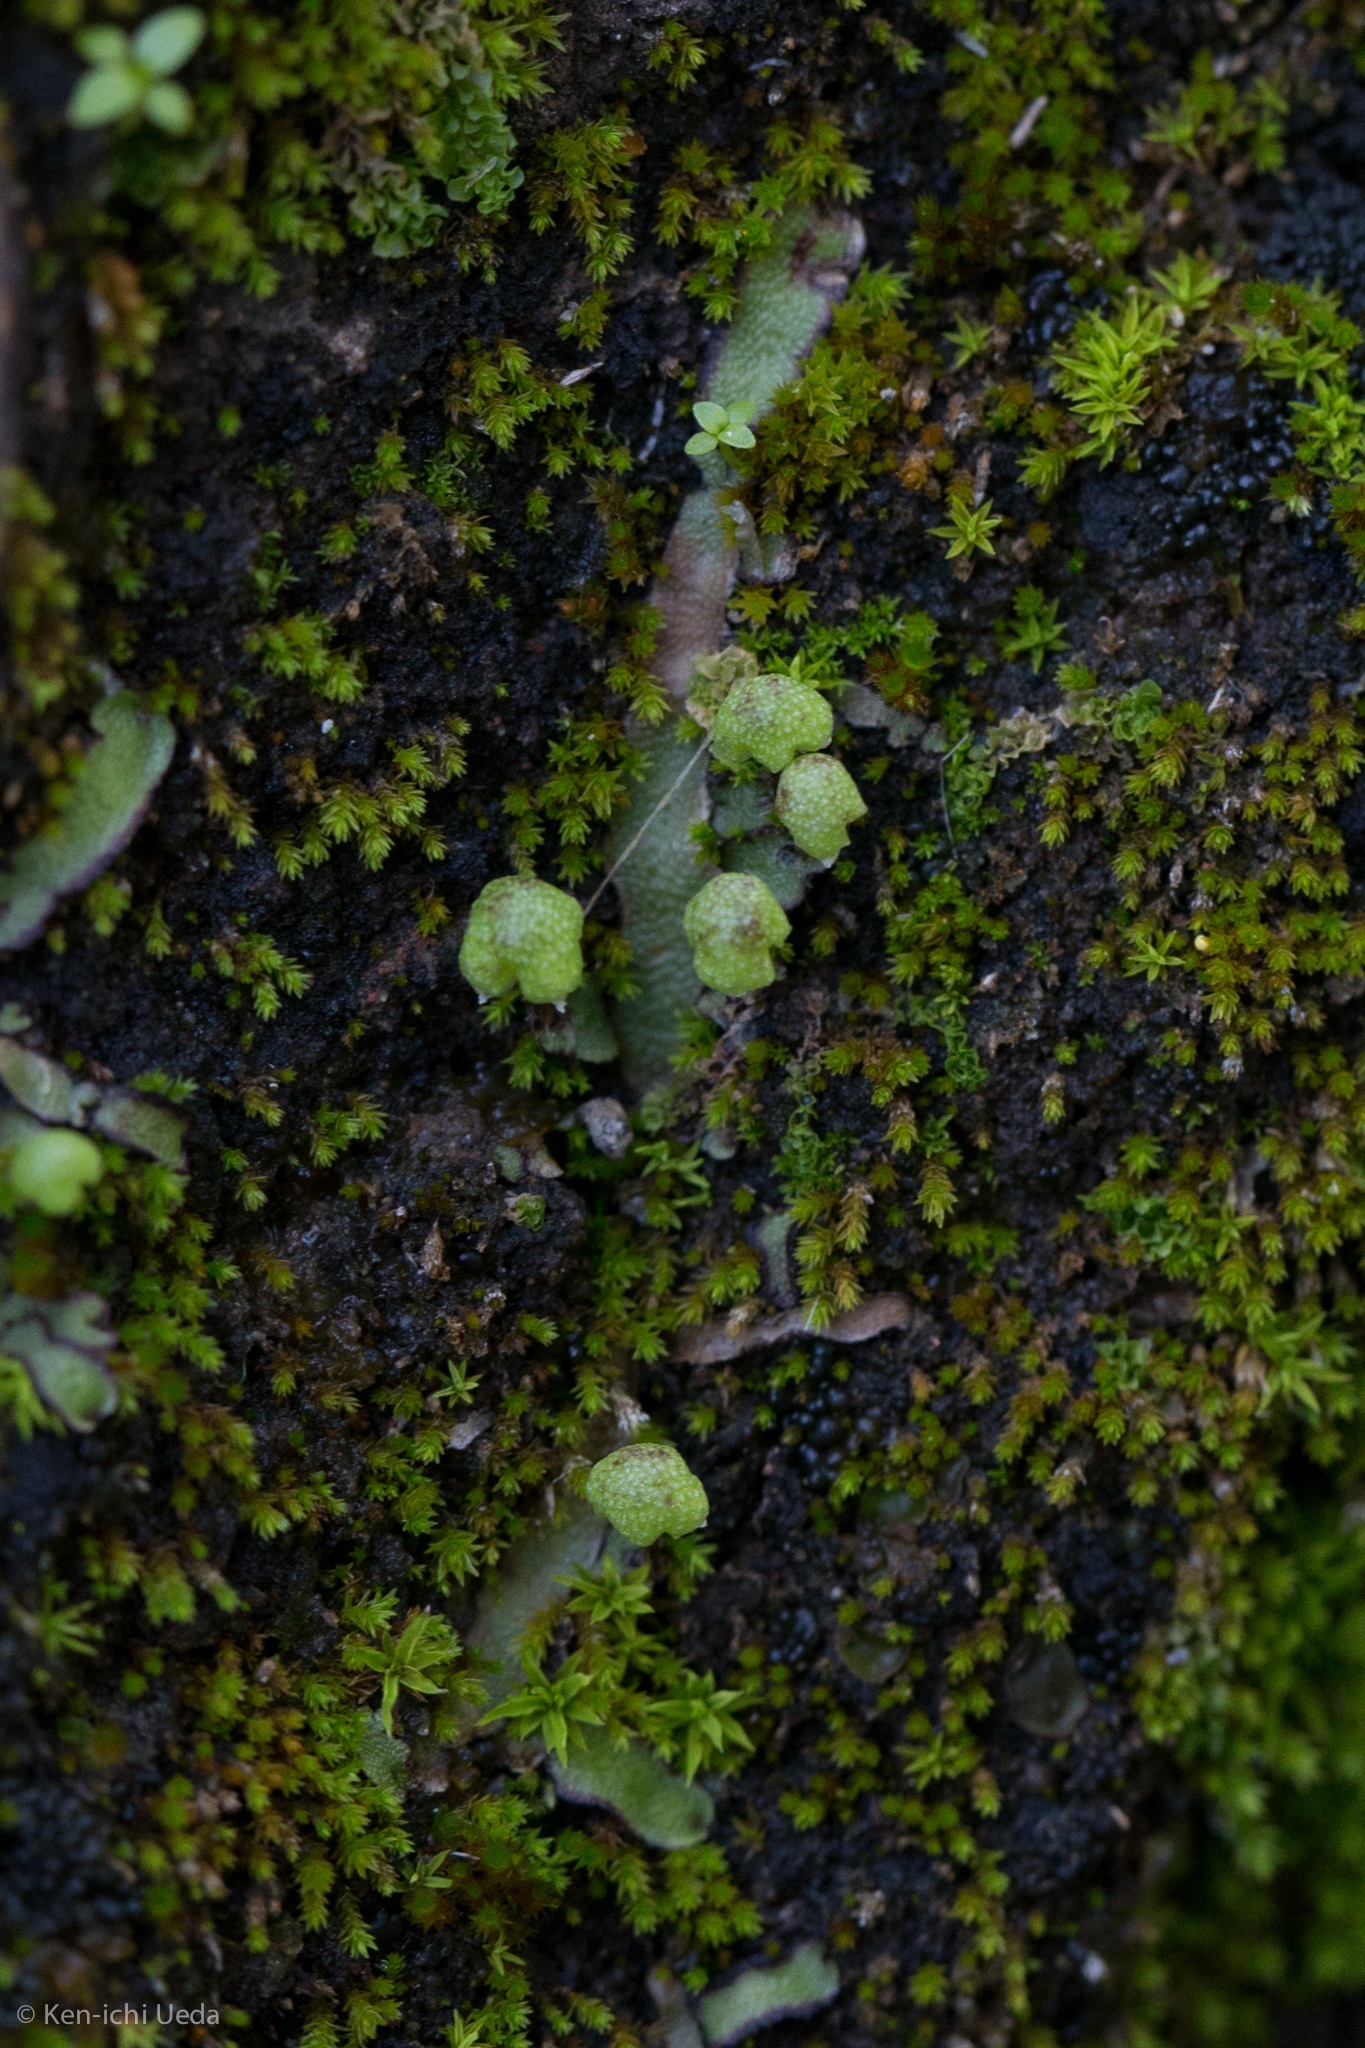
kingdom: Plantae
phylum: Marchantiophyta
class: Marchantiopsida
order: Marchantiales
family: Aytoniaceae
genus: Asterella
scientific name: Asterella bolanderi
